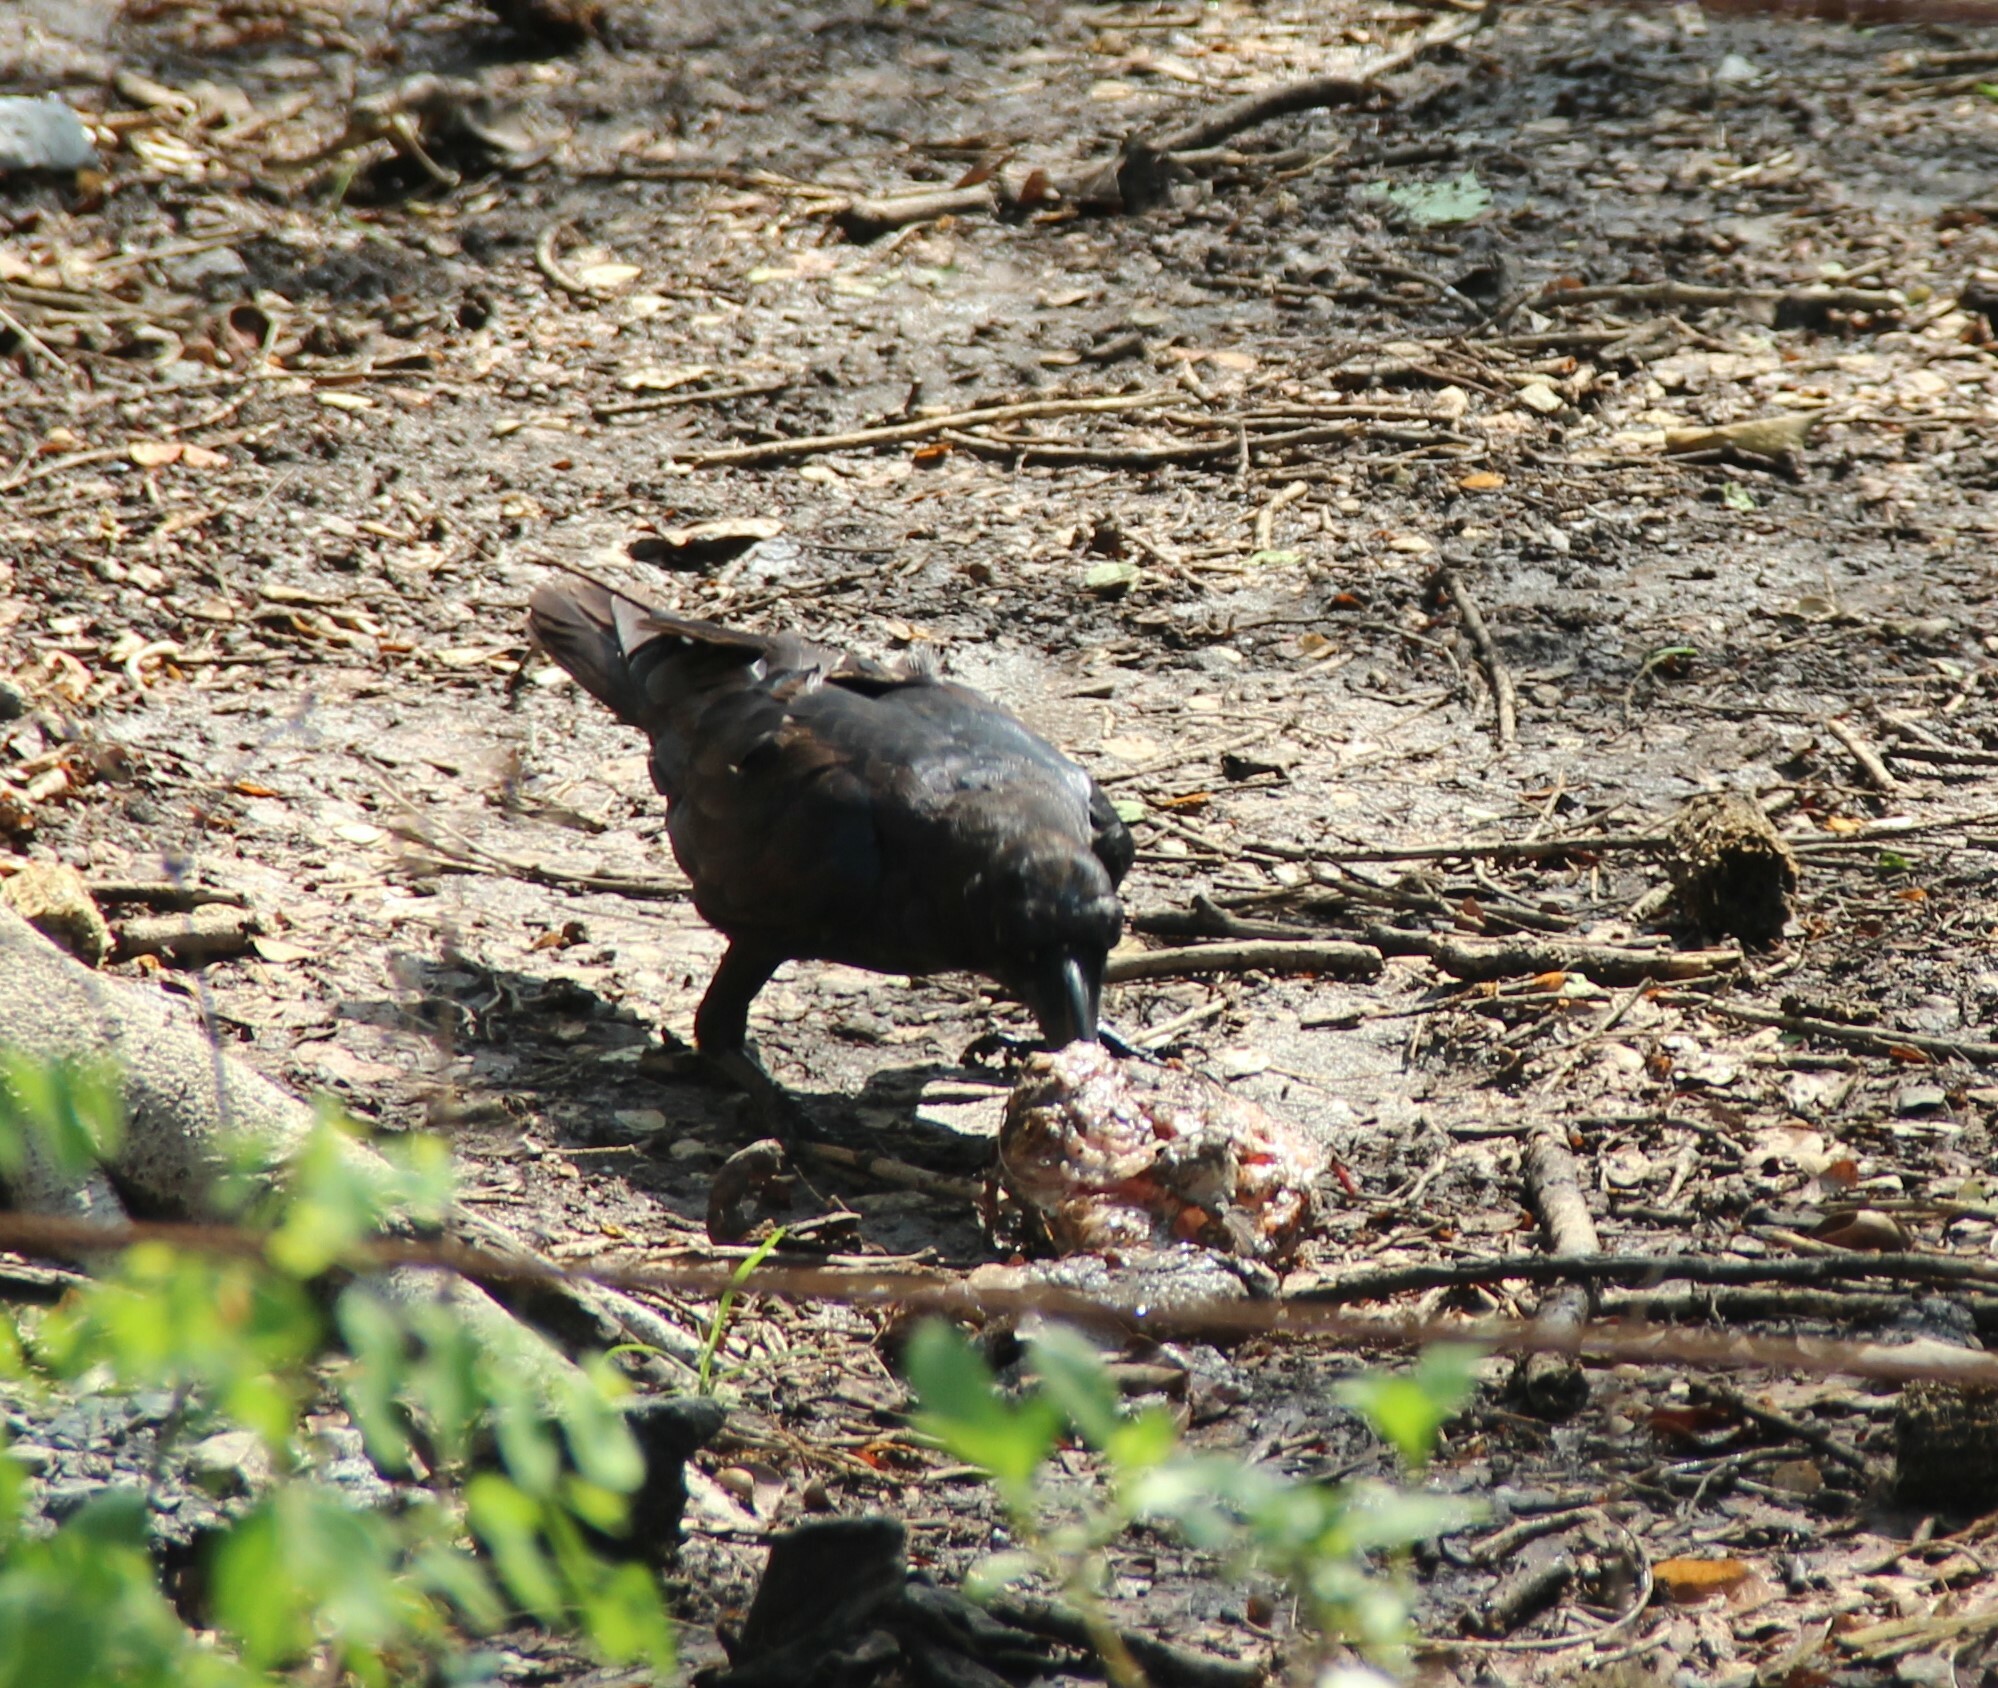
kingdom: Animalia
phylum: Chordata
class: Aves
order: Passeriformes
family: Corvidae
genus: Corvus
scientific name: Corvus macrorhynchos
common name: Large-billed crow
